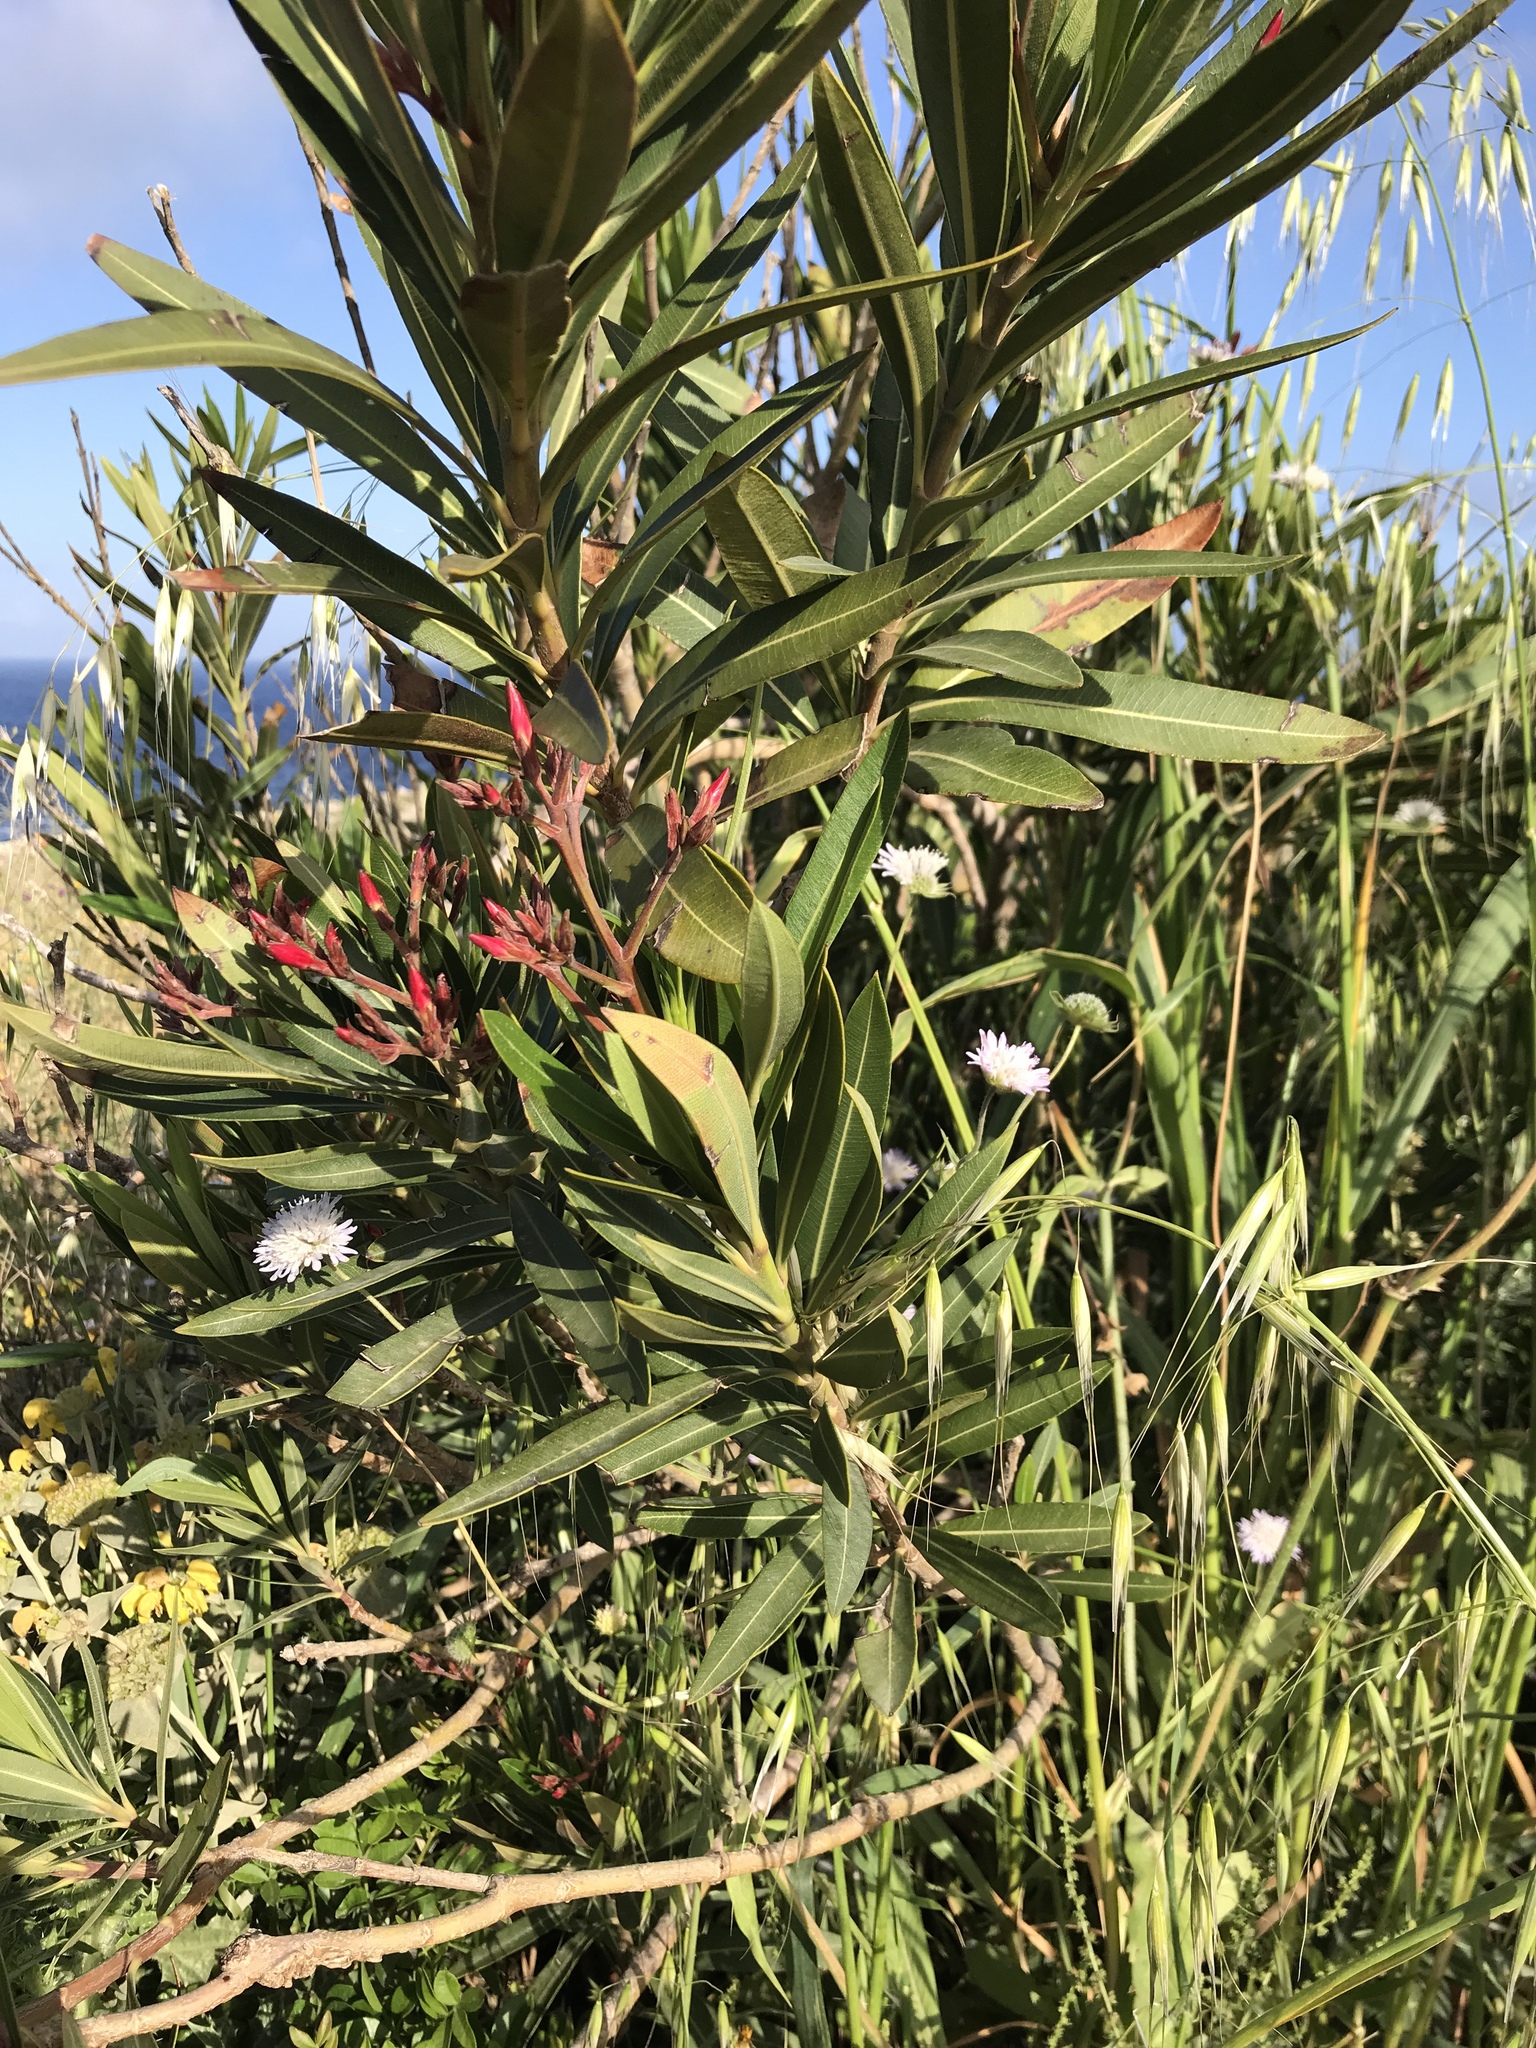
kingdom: Plantae
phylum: Tracheophyta
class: Magnoliopsida
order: Gentianales
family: Apocynaceae
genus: Nerium
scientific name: Nerium oleander
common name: Oleander
